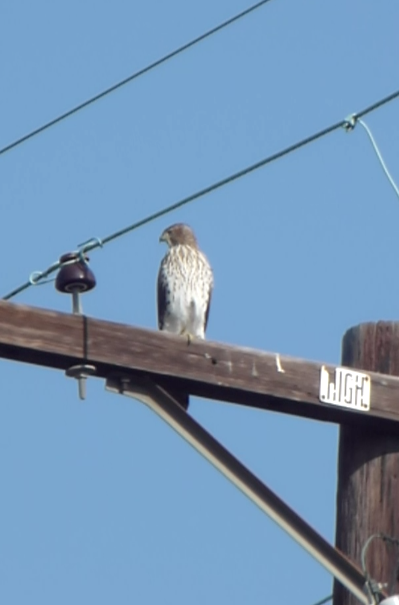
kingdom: Animalia
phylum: Chordata
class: Aves
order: Accipitriformes
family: Accipitridae
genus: Accipiter
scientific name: Accipiter cooperii
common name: Cooper's hawk
